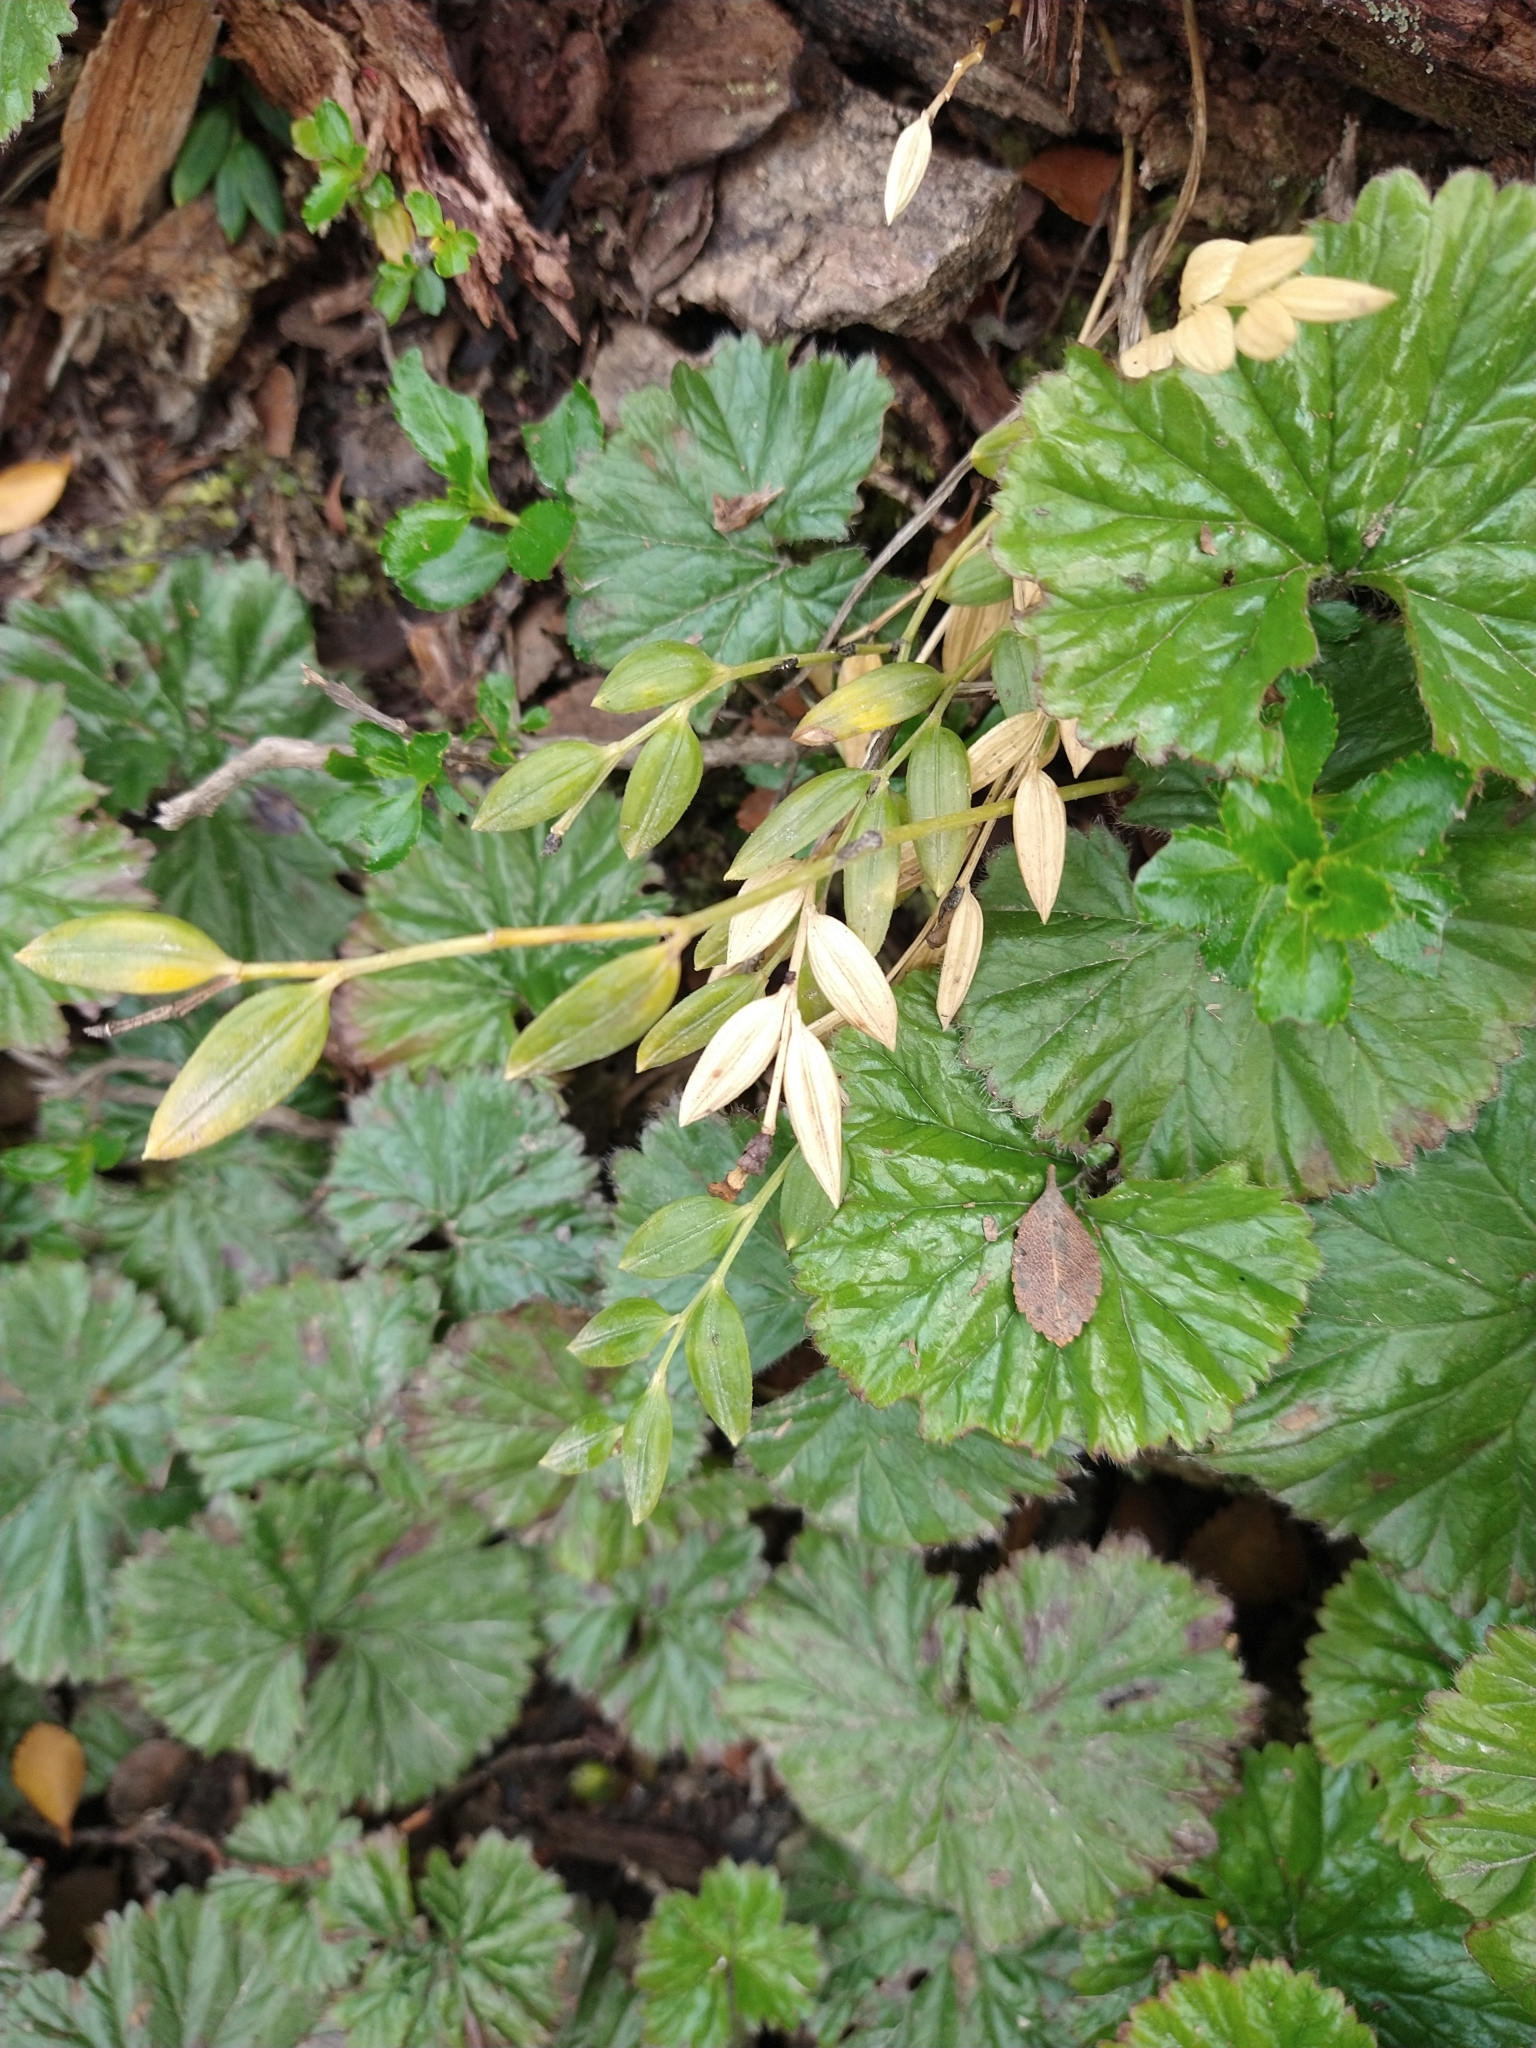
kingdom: Plantae
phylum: Tracheophyta
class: Liliopsida
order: Liliales
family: Alstroemeriaceae
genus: Luzuriaga
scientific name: Luzuriaga marginata
